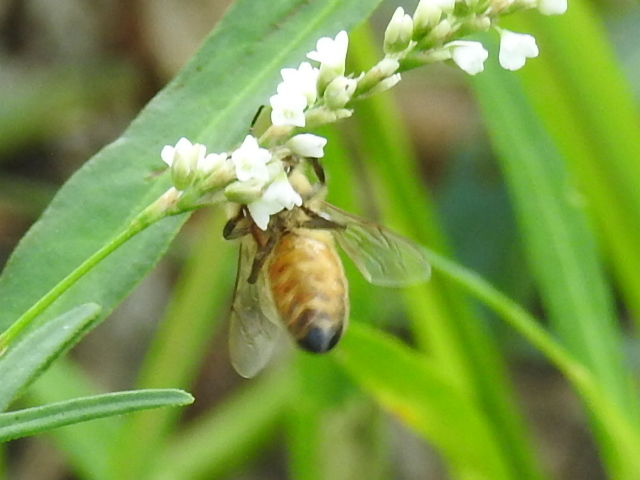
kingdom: Animalia
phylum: Arthropoda
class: Insecta
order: Hymenoptera
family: Apidae
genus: Apis
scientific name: Apis mellifera
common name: Honey bee
